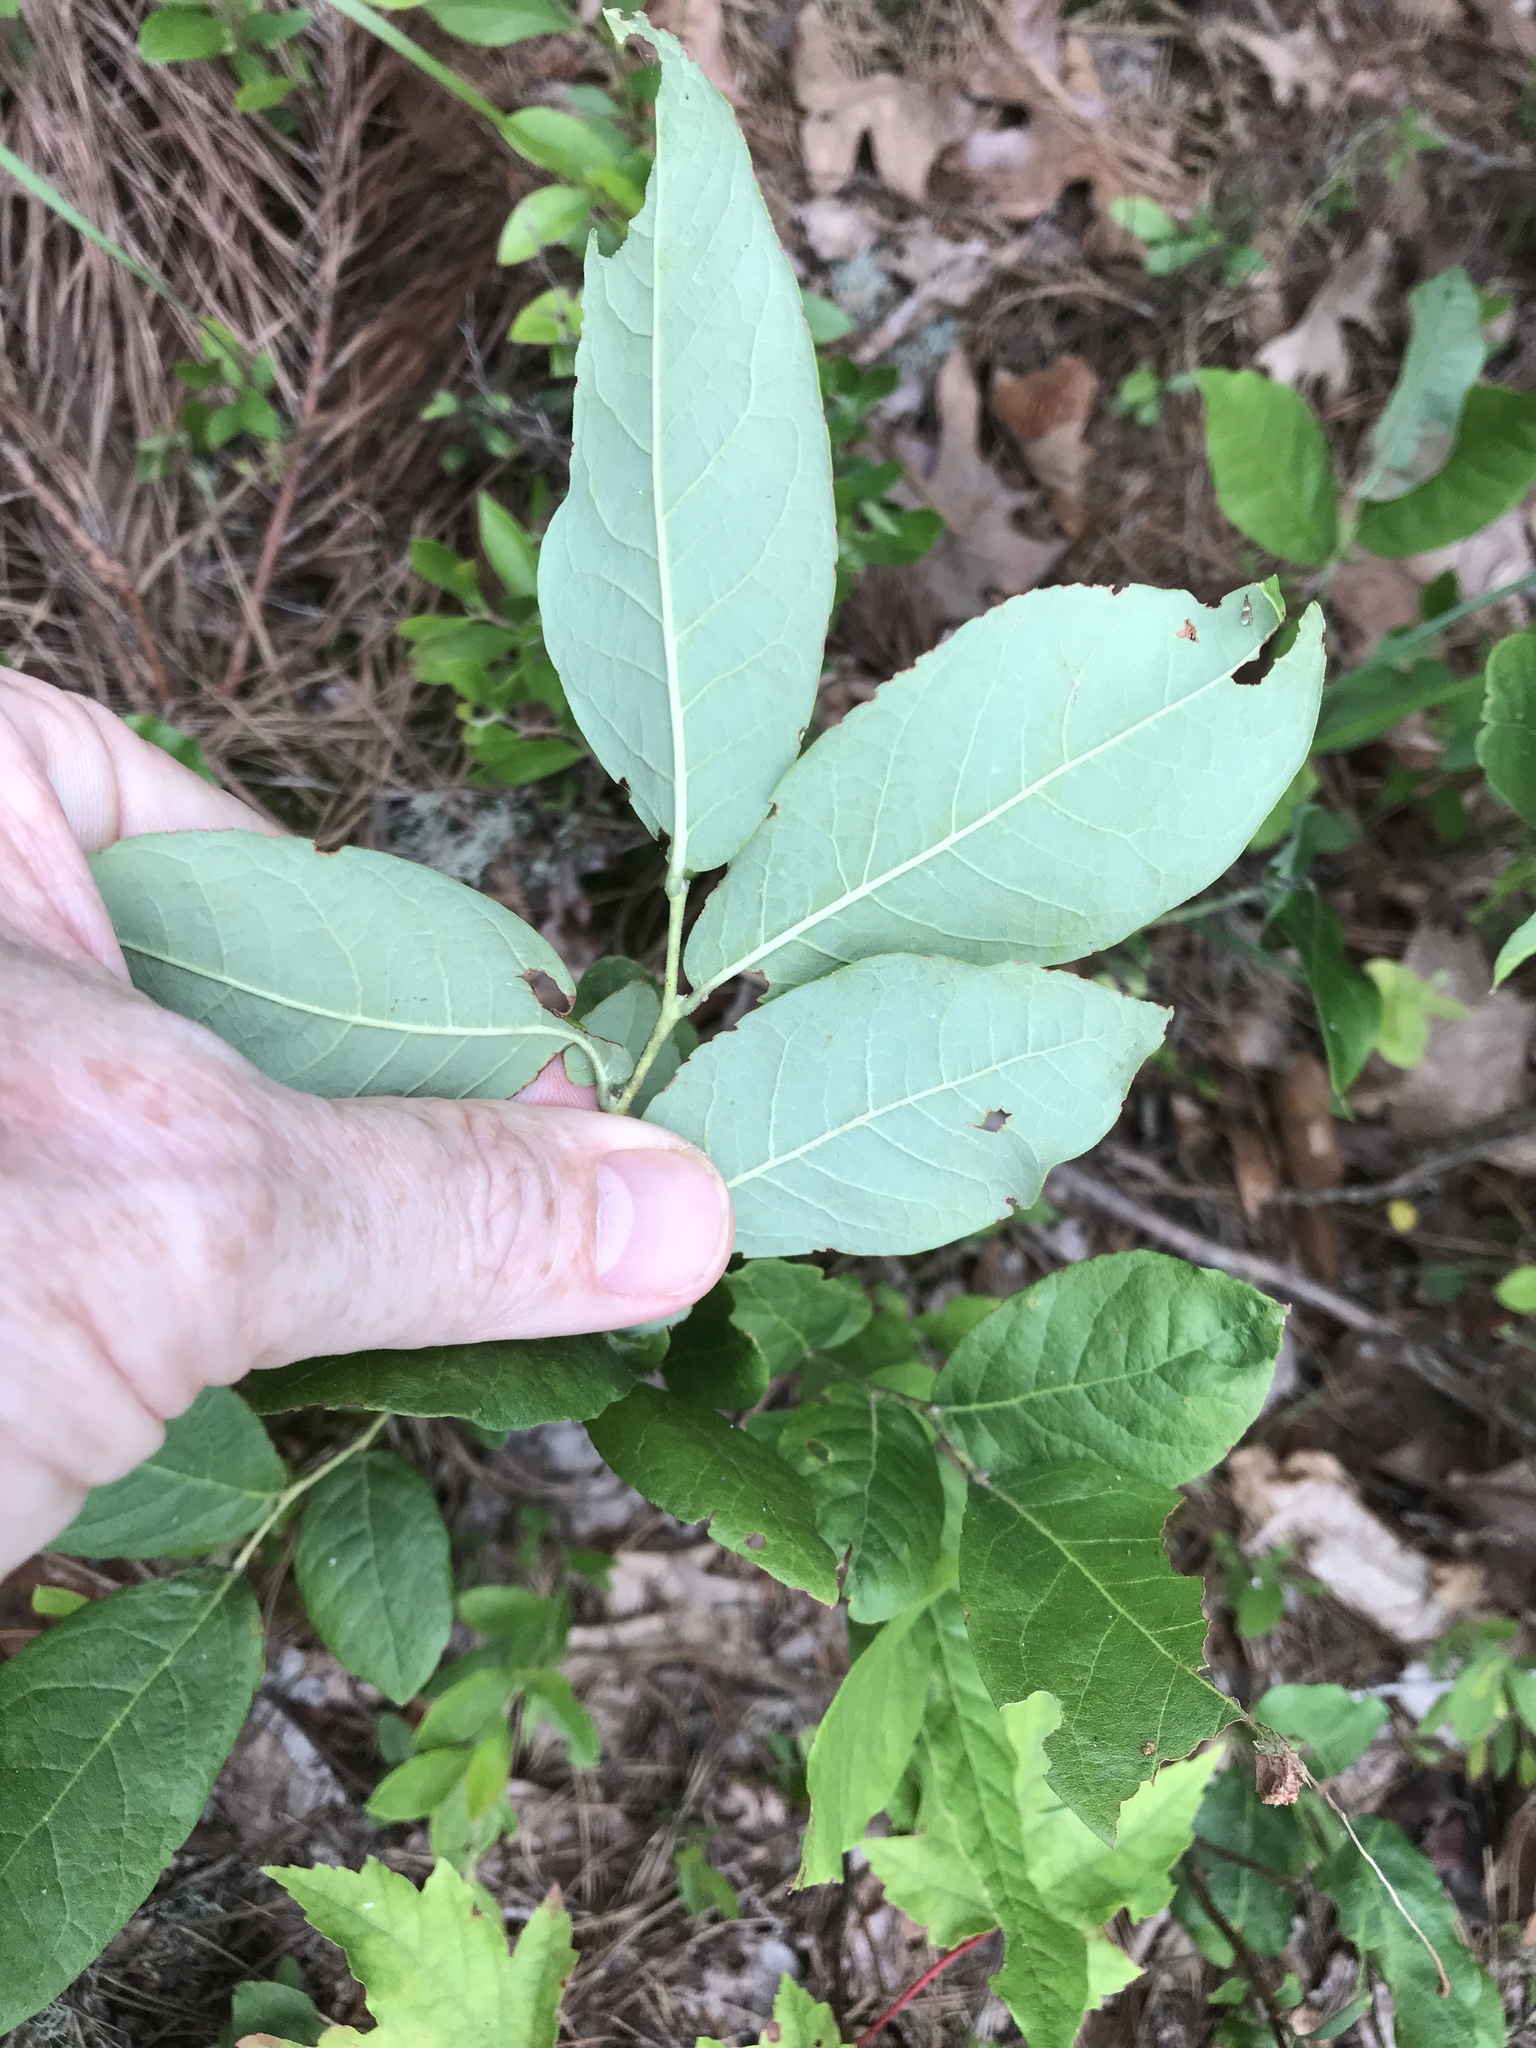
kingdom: Plantae
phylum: Tracheophyta
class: Magnoliopsida
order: Ericales
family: Ericaceae
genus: Vaccinium
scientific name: Vaccinium stamineum
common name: Deerberry
